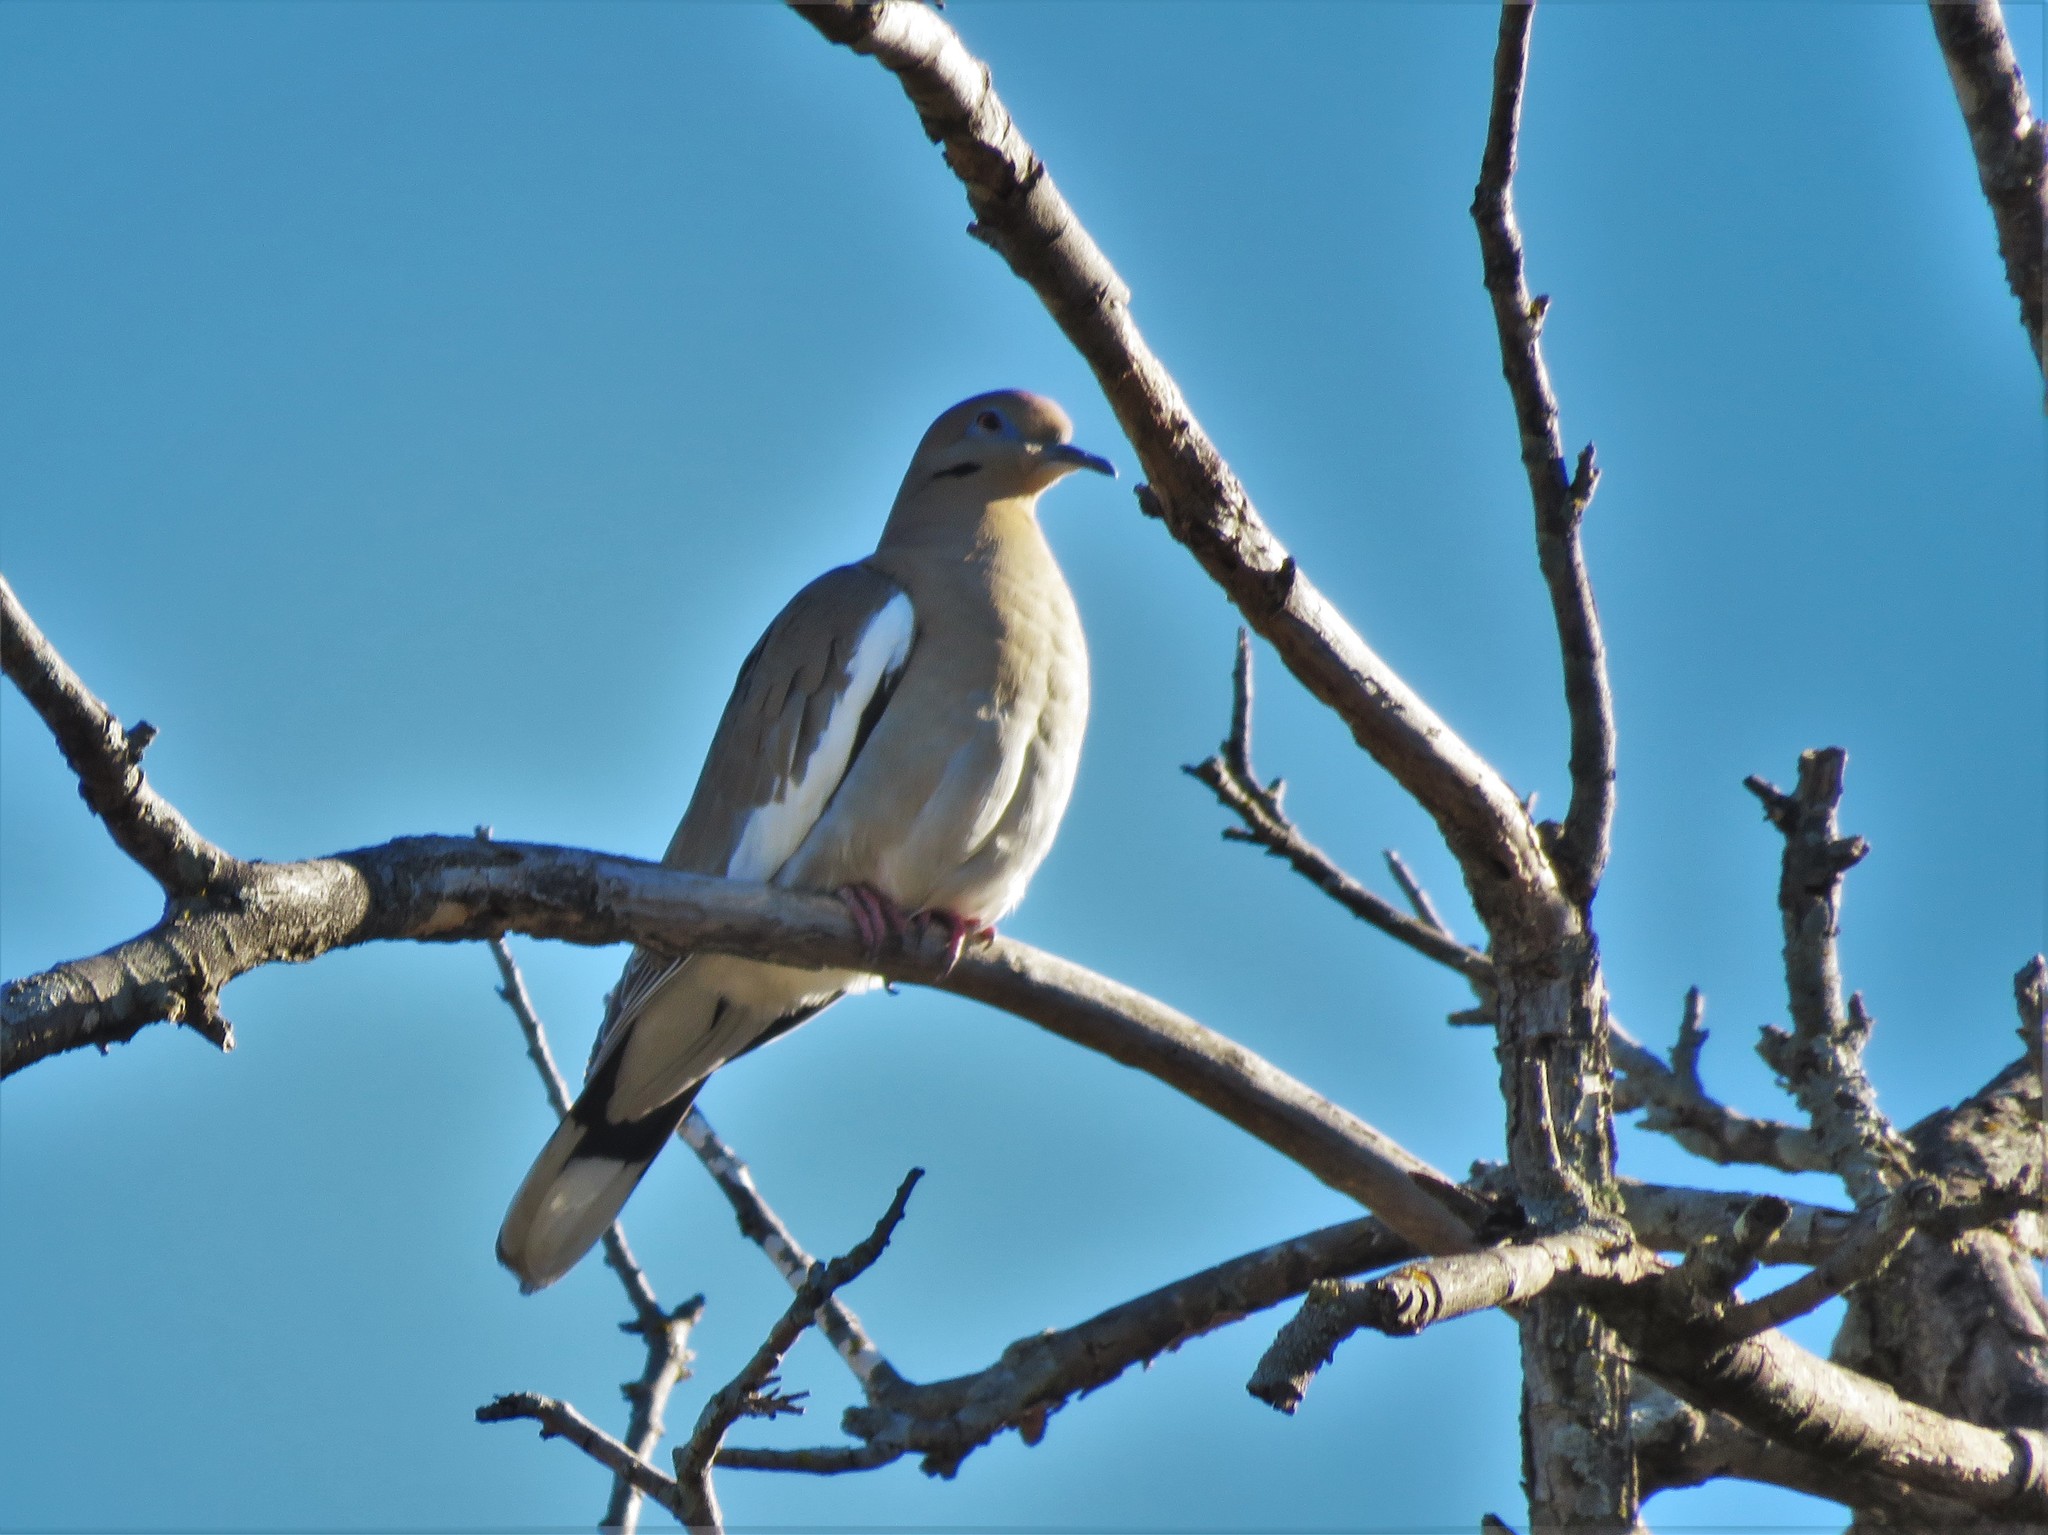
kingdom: Animalia
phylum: Chordata
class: Aves
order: Columbiformes
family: Columbidae
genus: Zenaida
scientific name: Zenaida asiatica
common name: White-winged dove
